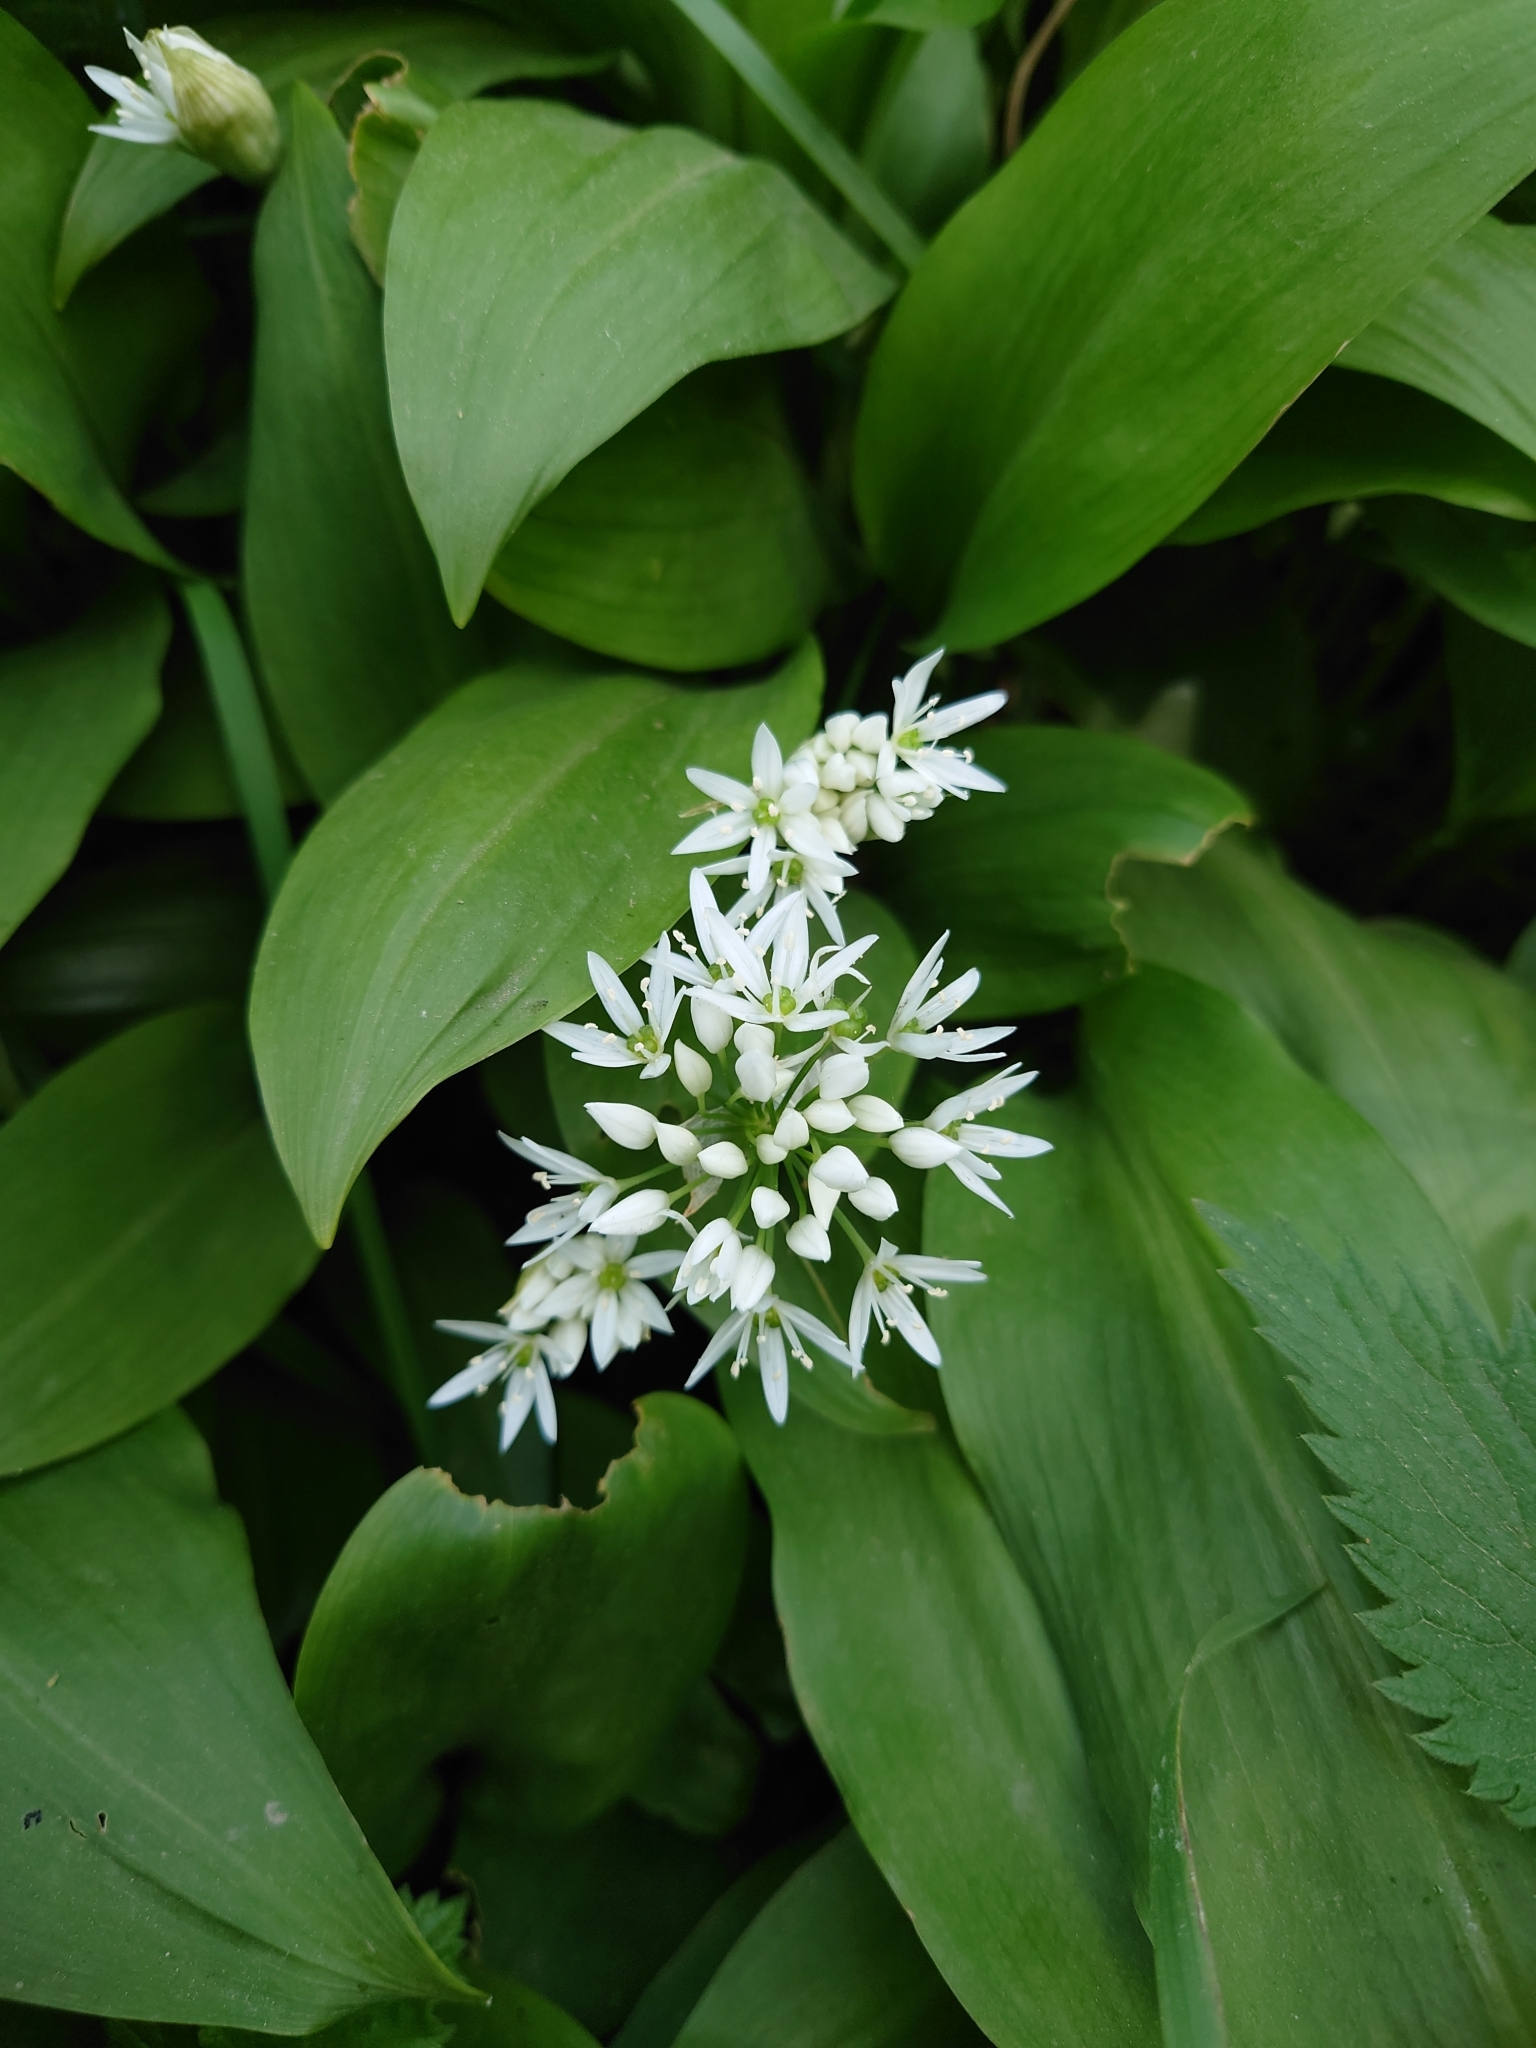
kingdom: Plantae
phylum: Tracheophyta
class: Liliopsida
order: Asparagales
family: Amaryllidaceae
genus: Allium
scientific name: Allium ursinum
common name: Ramsons
